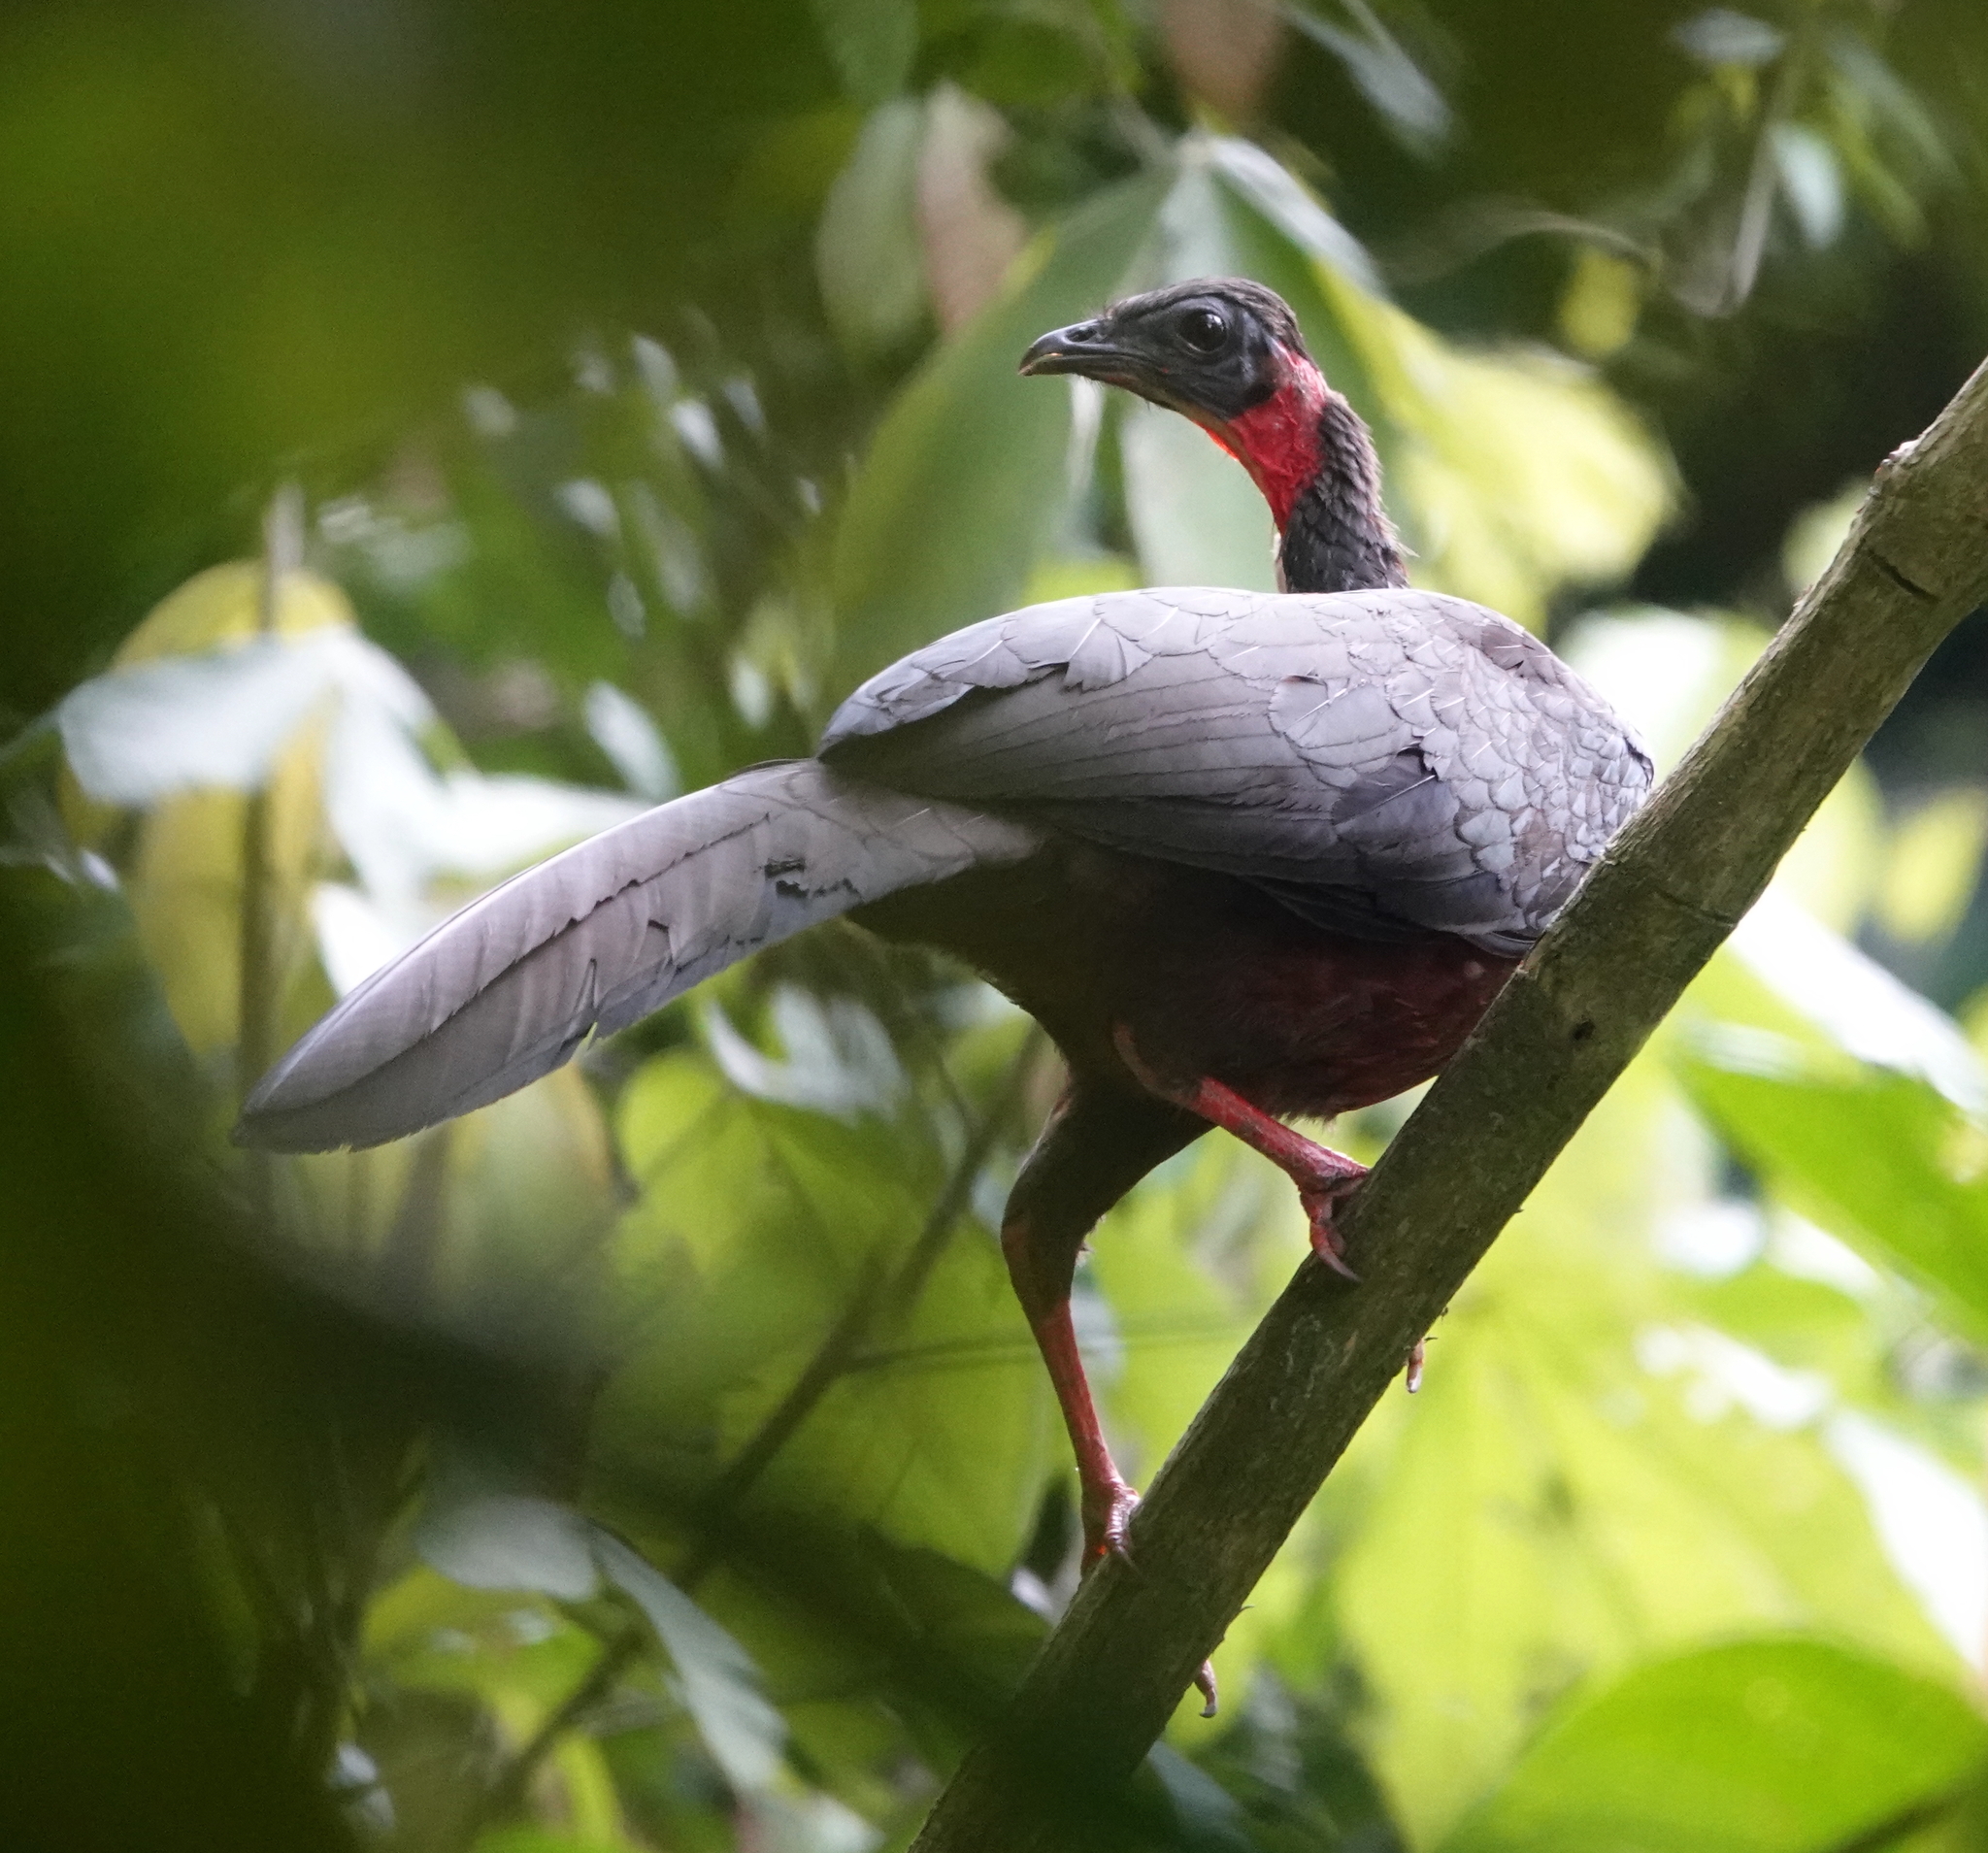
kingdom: Animalia
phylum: Chordata
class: Aves
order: Galliformes
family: Cracidae
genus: Penelope
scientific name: Penelope jacquacu
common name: Spix's guan
